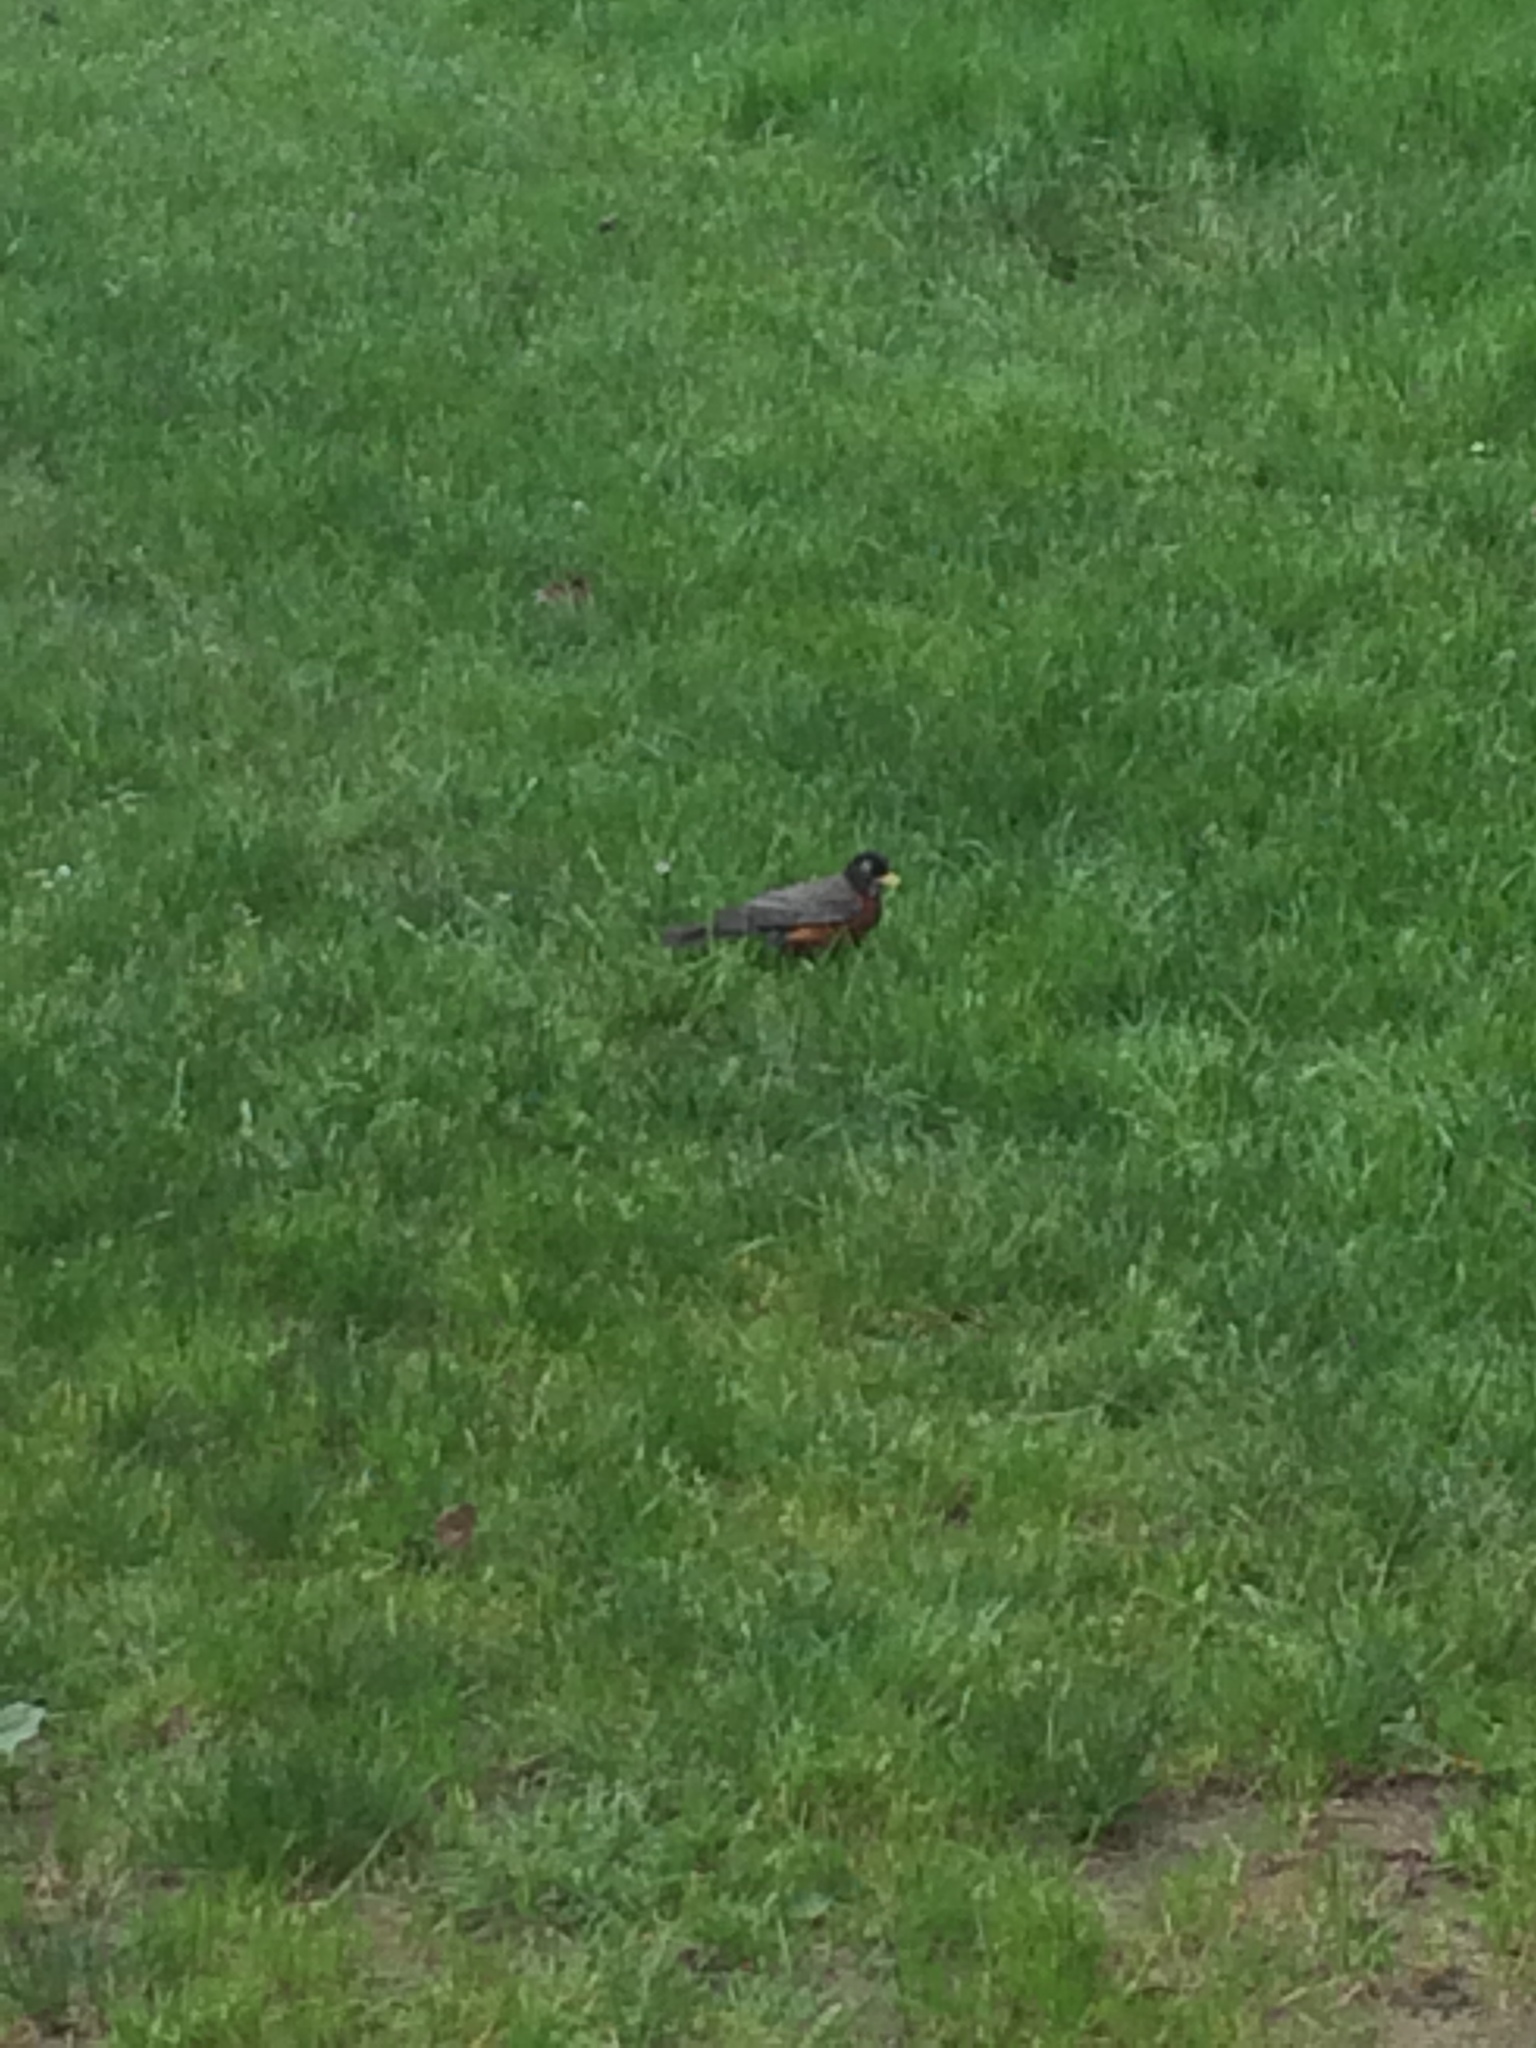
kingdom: Animalia
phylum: Chordata
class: Aves
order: Passeriformes
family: Turdidae
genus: Turdus
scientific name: Turdus migratorius
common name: American robin
